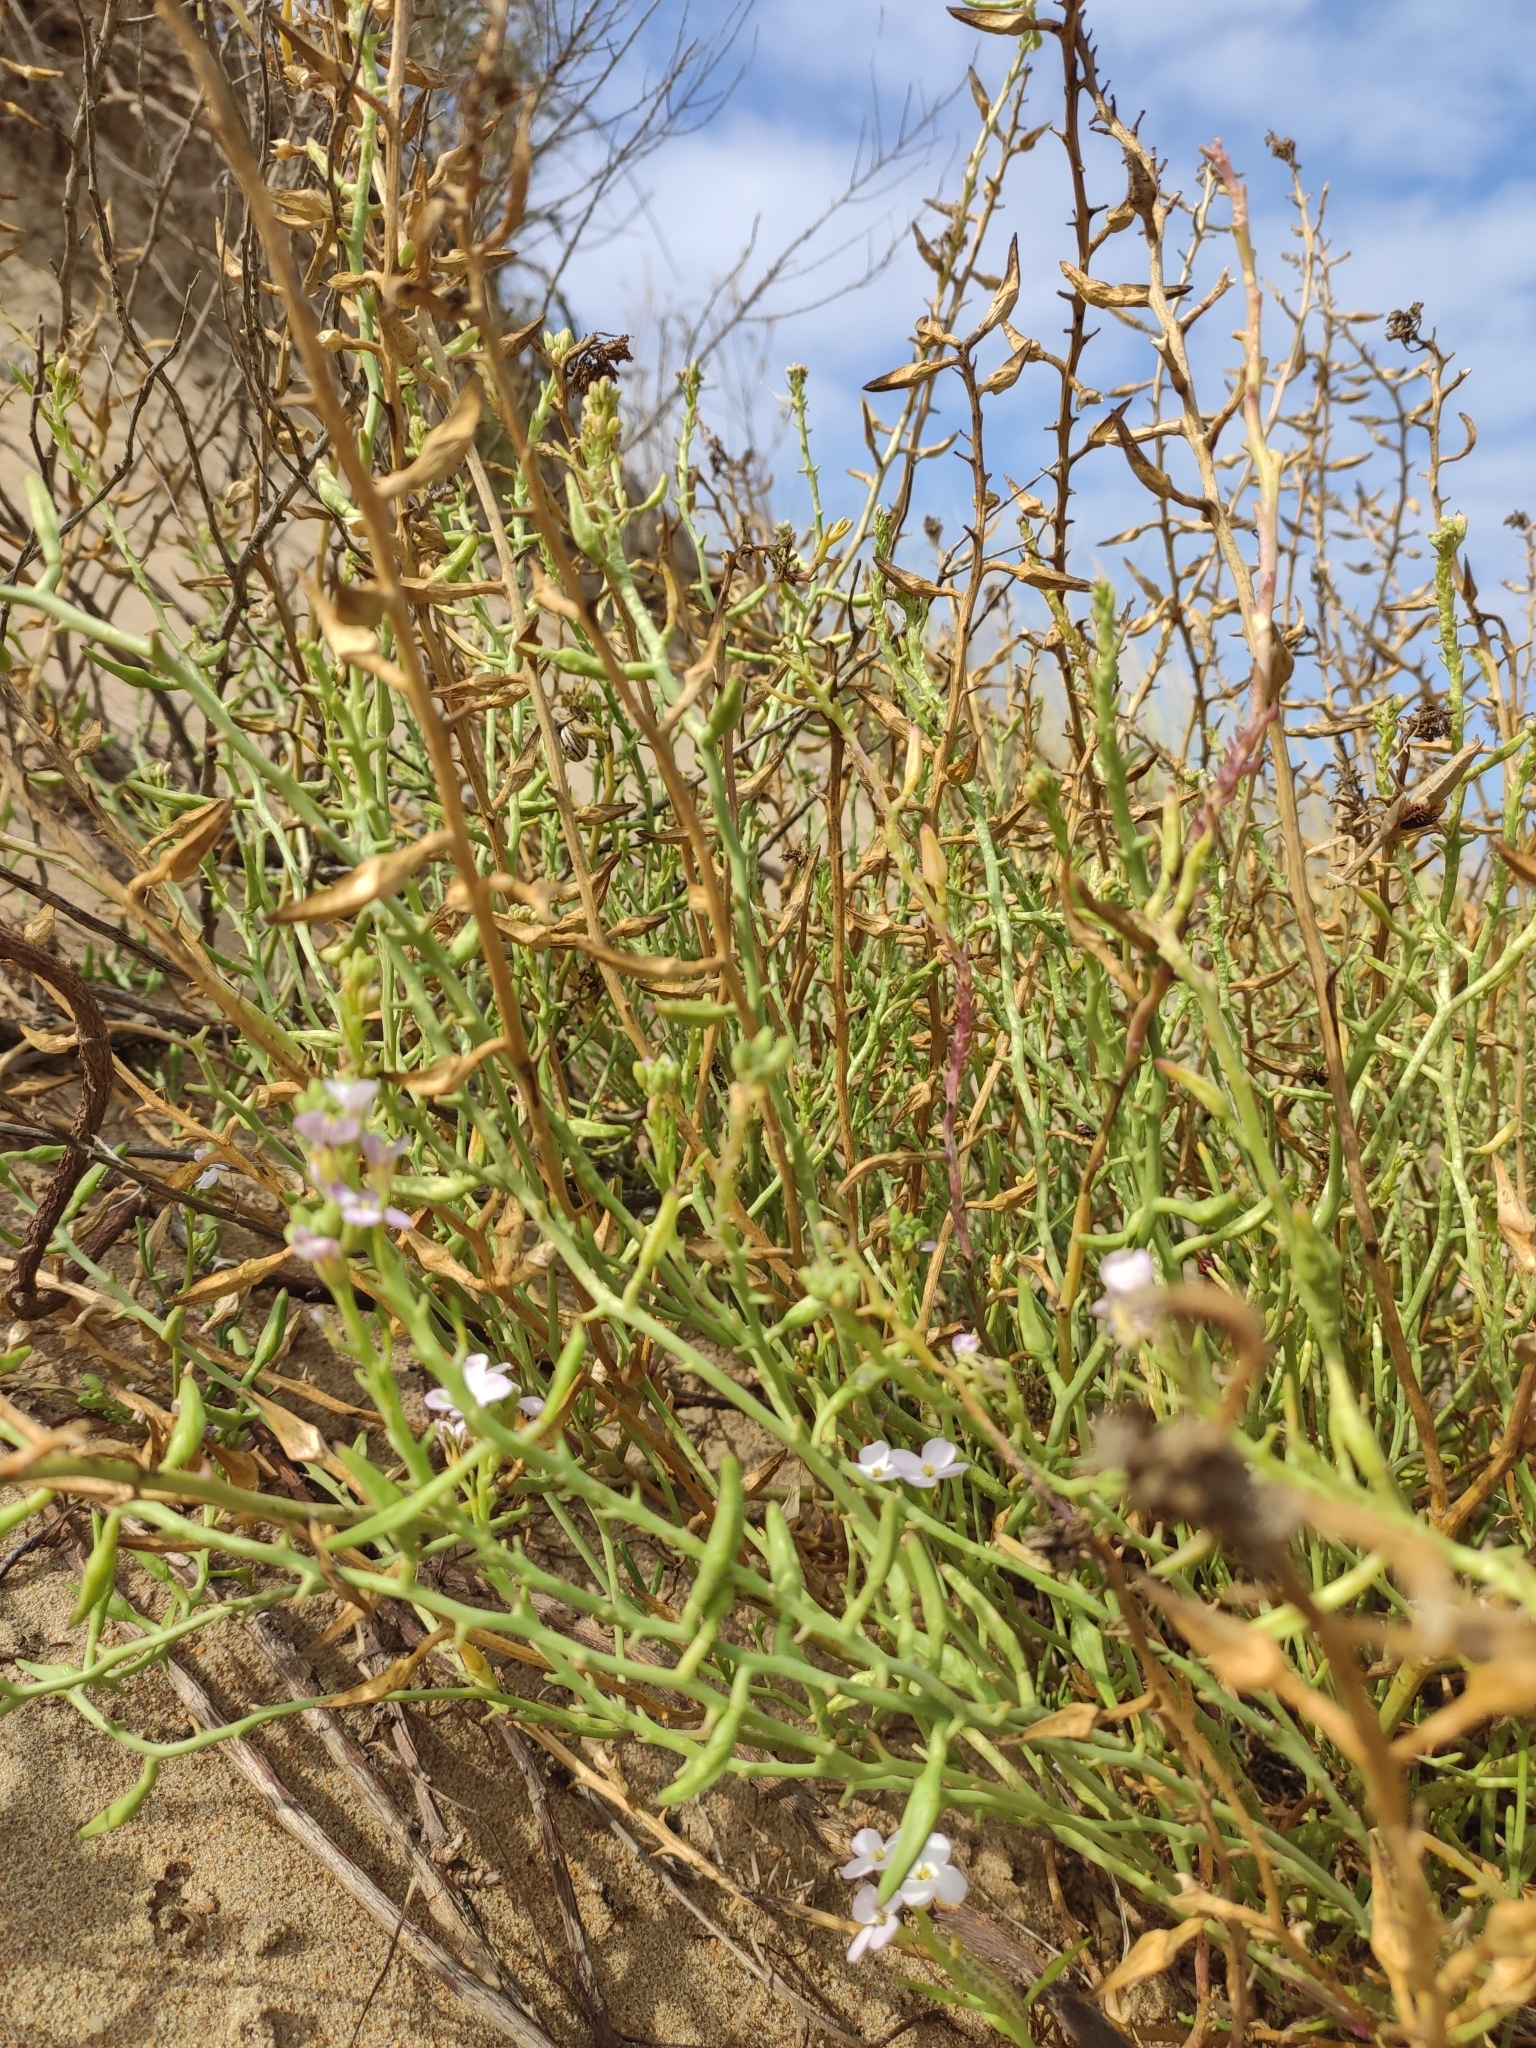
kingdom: Plantae
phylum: Tracheophyta
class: Magnoliopsida
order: Brassicales
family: Brassicaceae
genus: Cakile
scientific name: Cakile maritima
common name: Sea rocket
